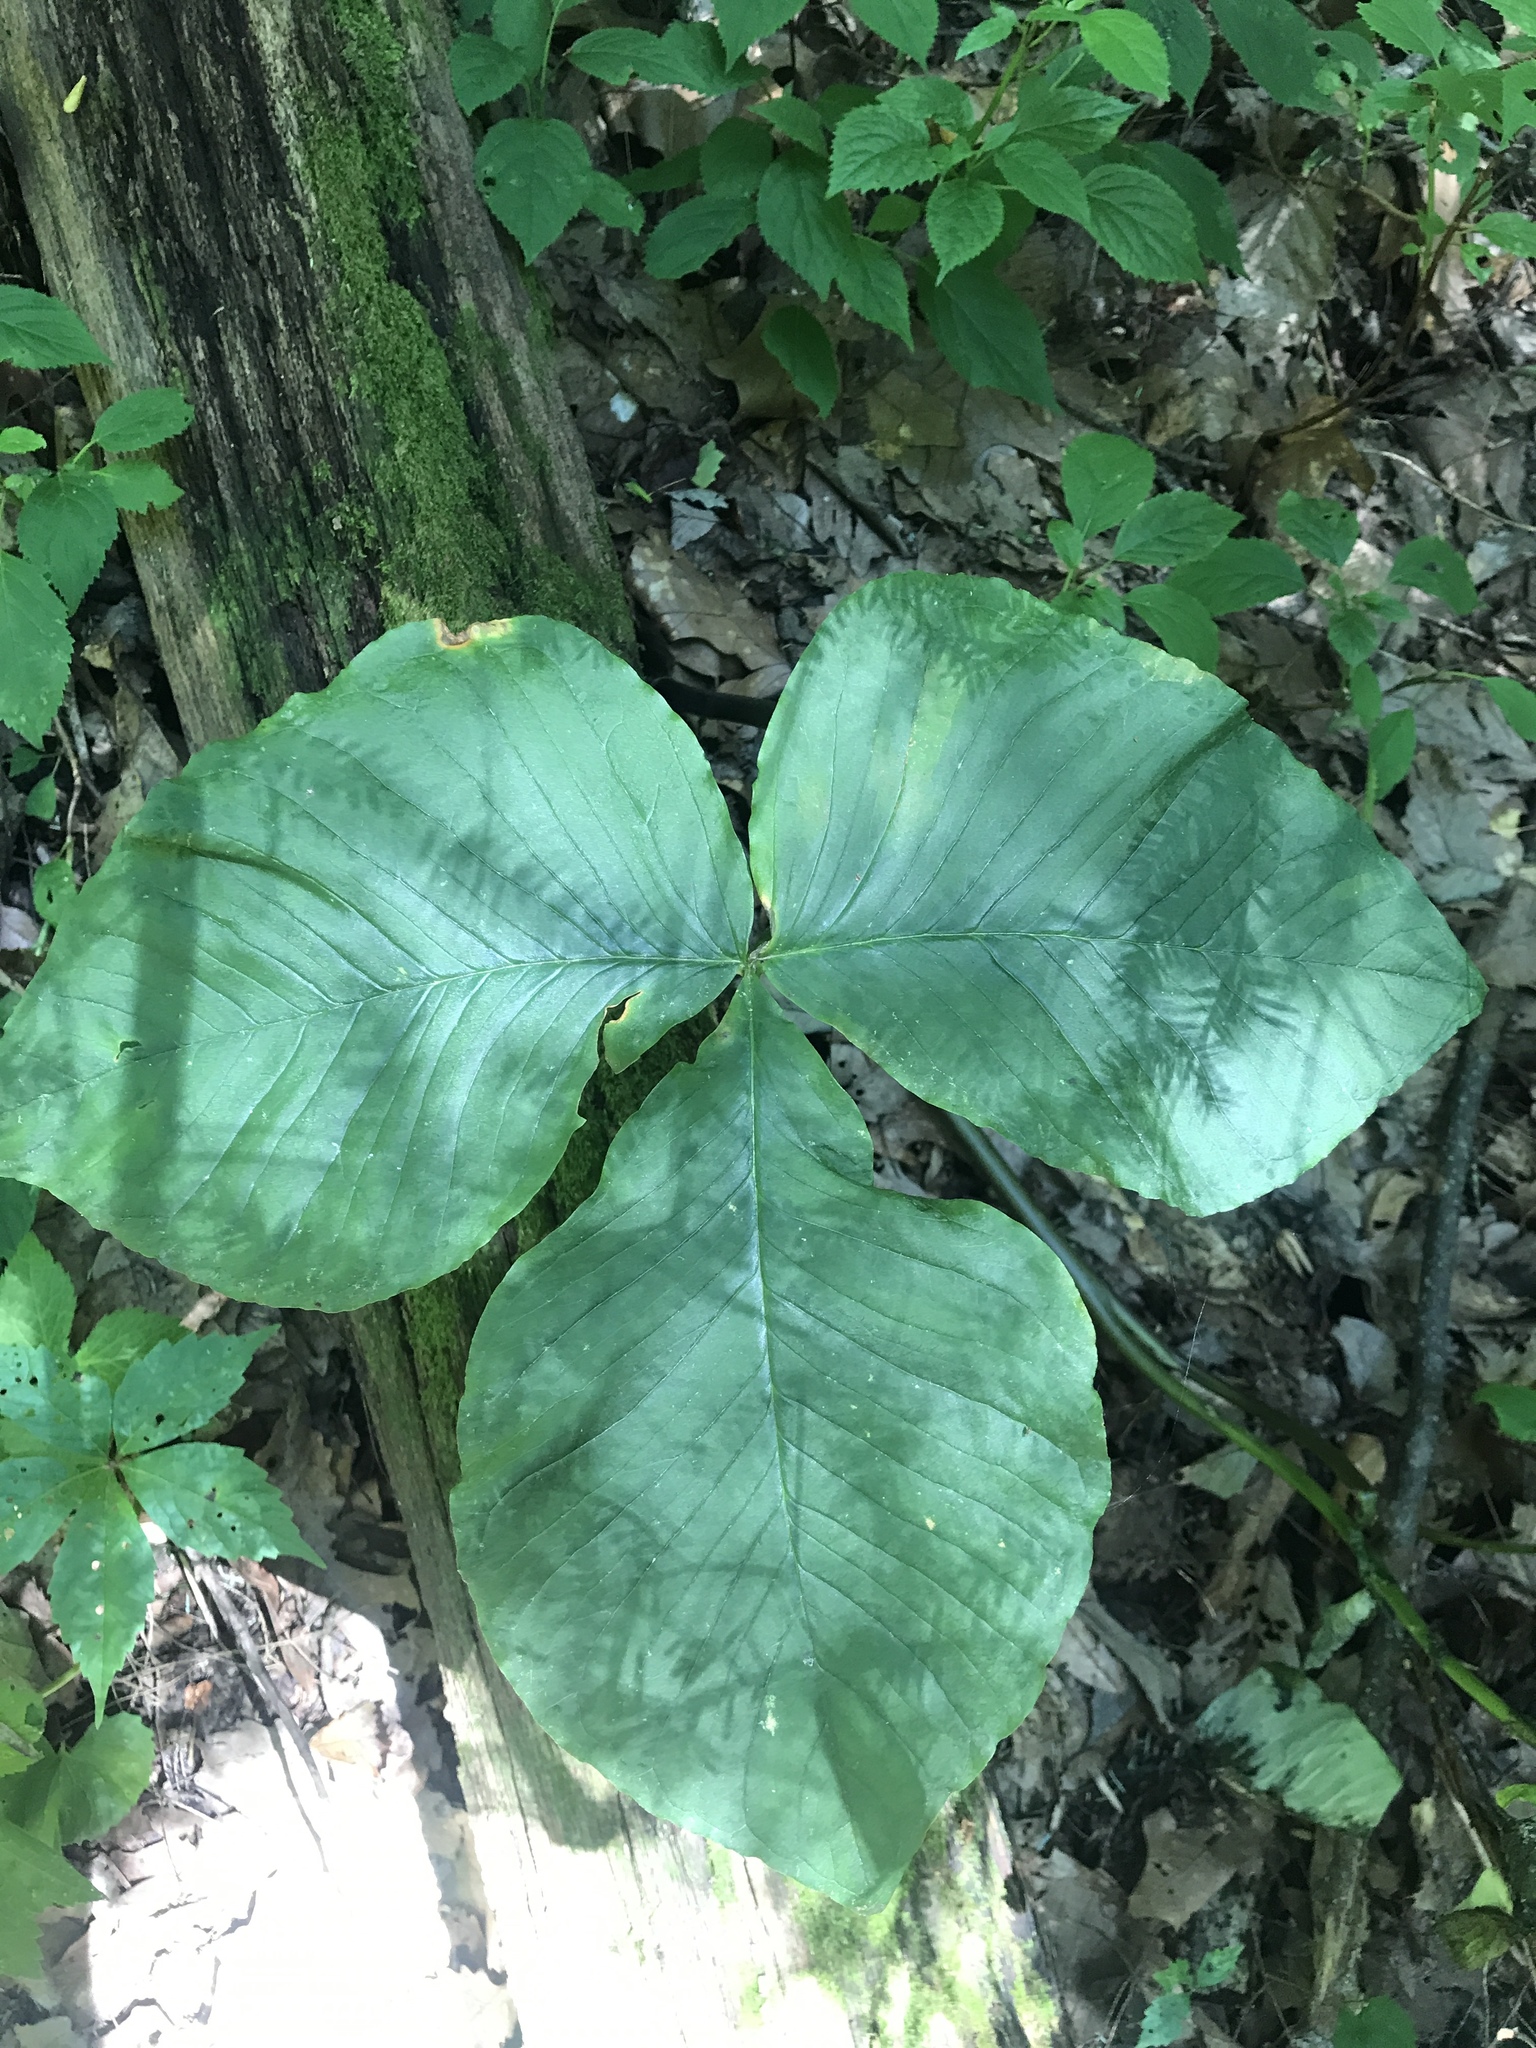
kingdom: Plantae
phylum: Tracheophyta
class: Liliopsida
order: Alismatales
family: Araceae
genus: Arisaema
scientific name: Arisaema triphyllum
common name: Jack-in-the-pulpit
